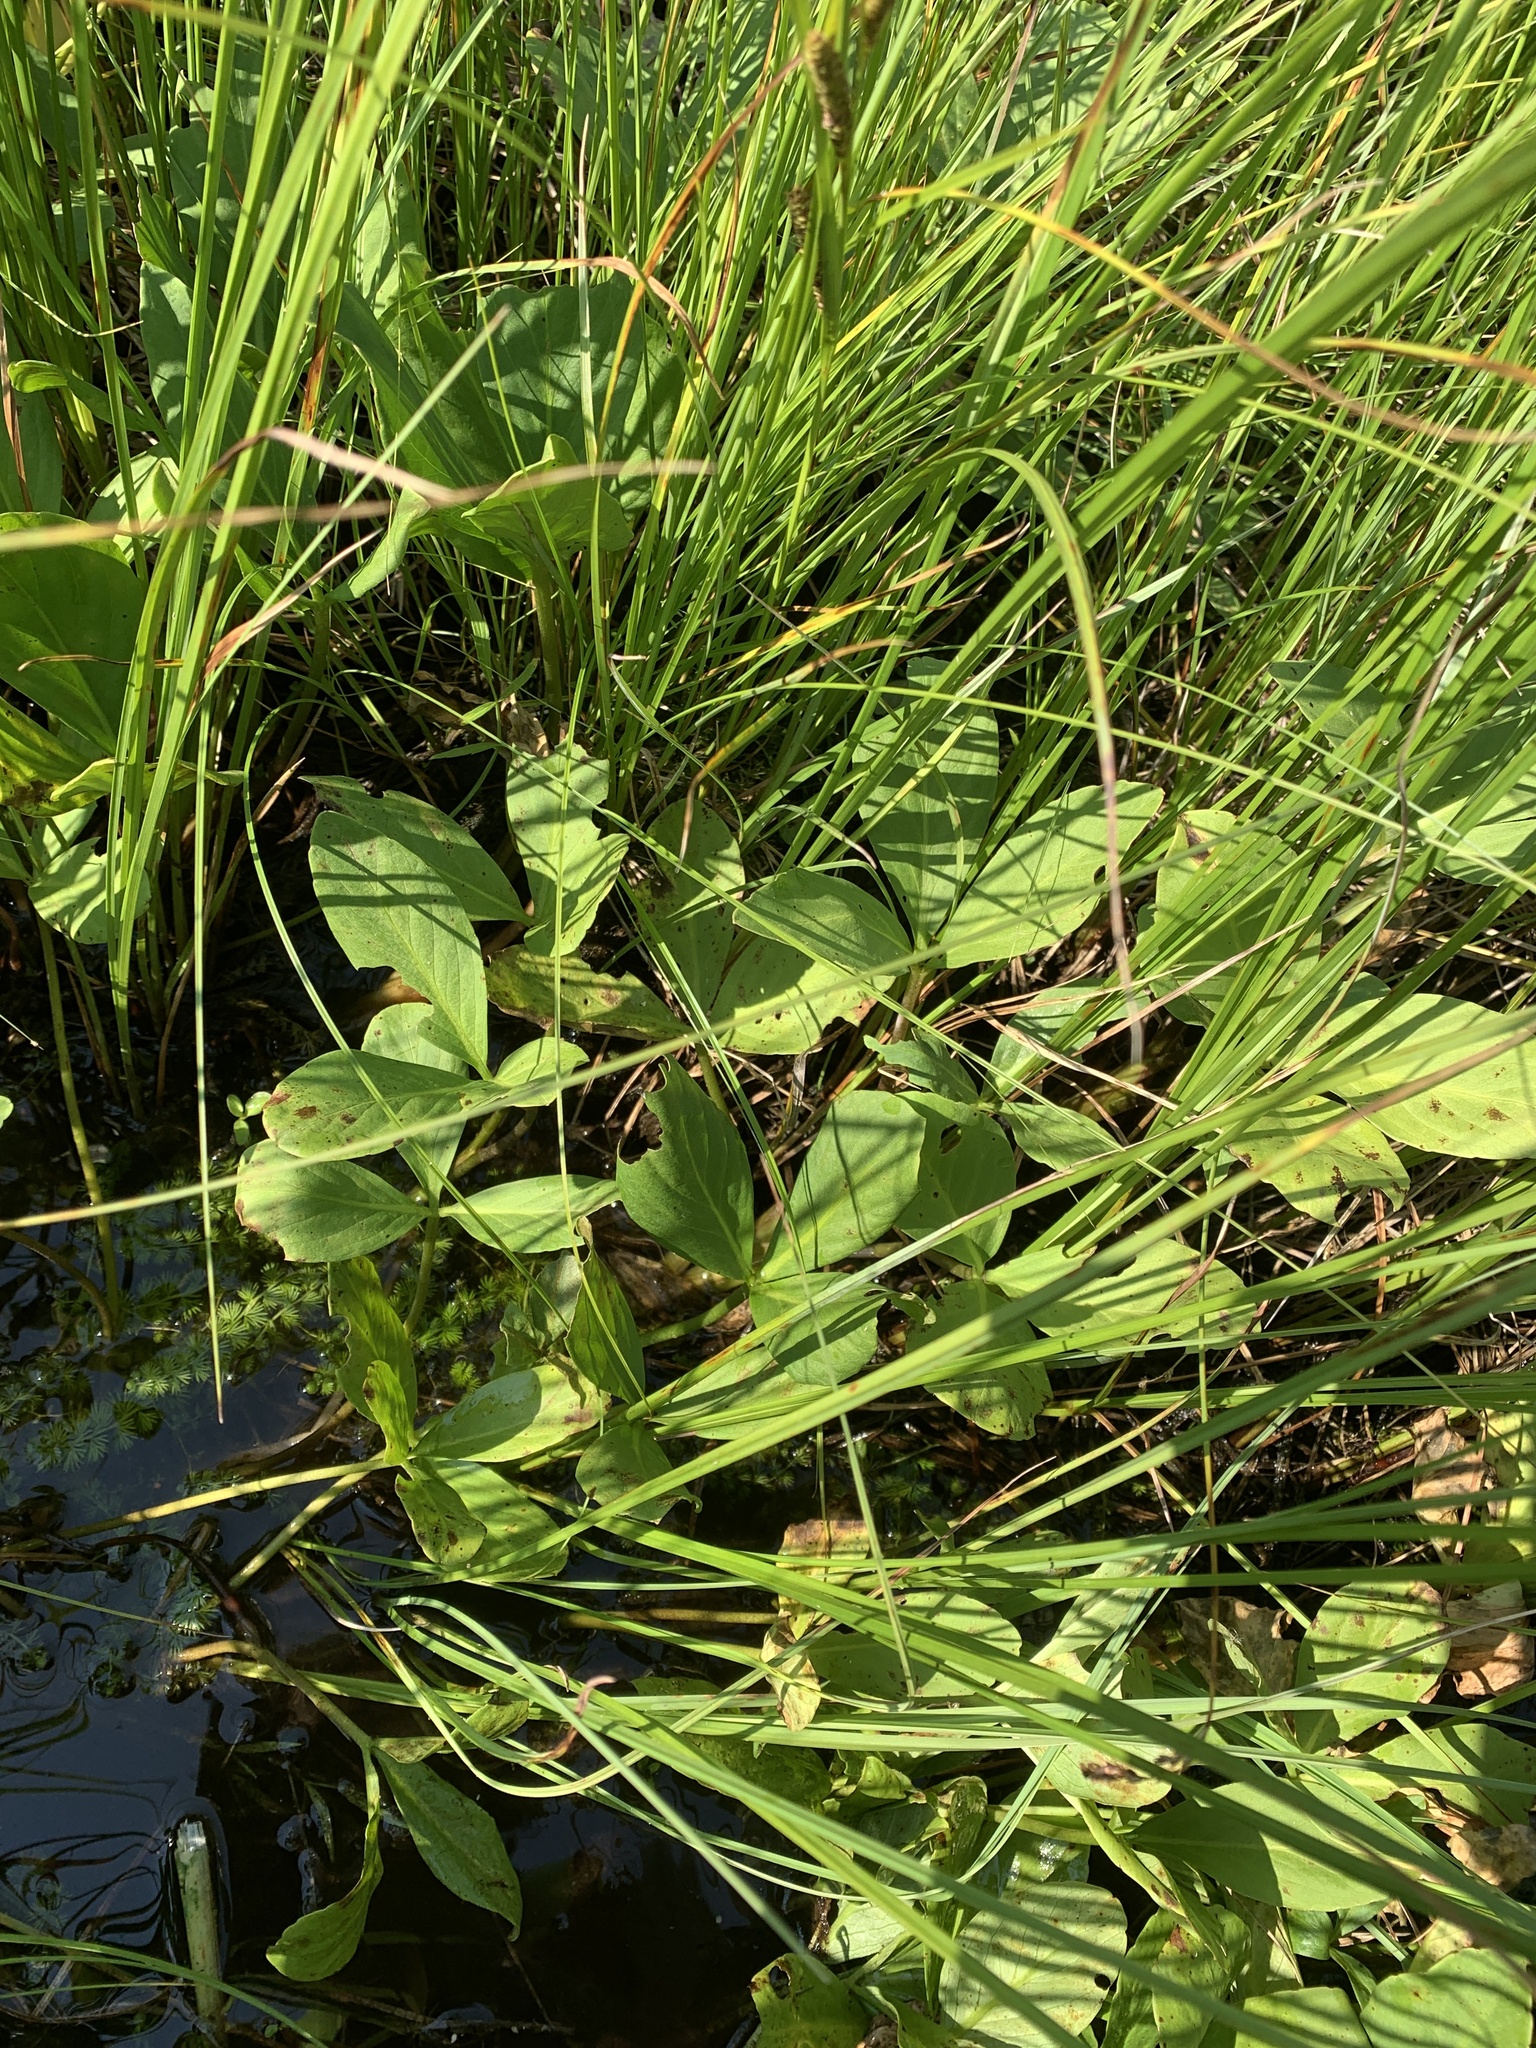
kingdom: Plantae
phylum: Tracheophyta
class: Magnoliopsida
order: Asterales
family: Menyanthaceae
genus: Menyanthes
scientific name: Menyanthes trifoliata
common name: Bogbean
